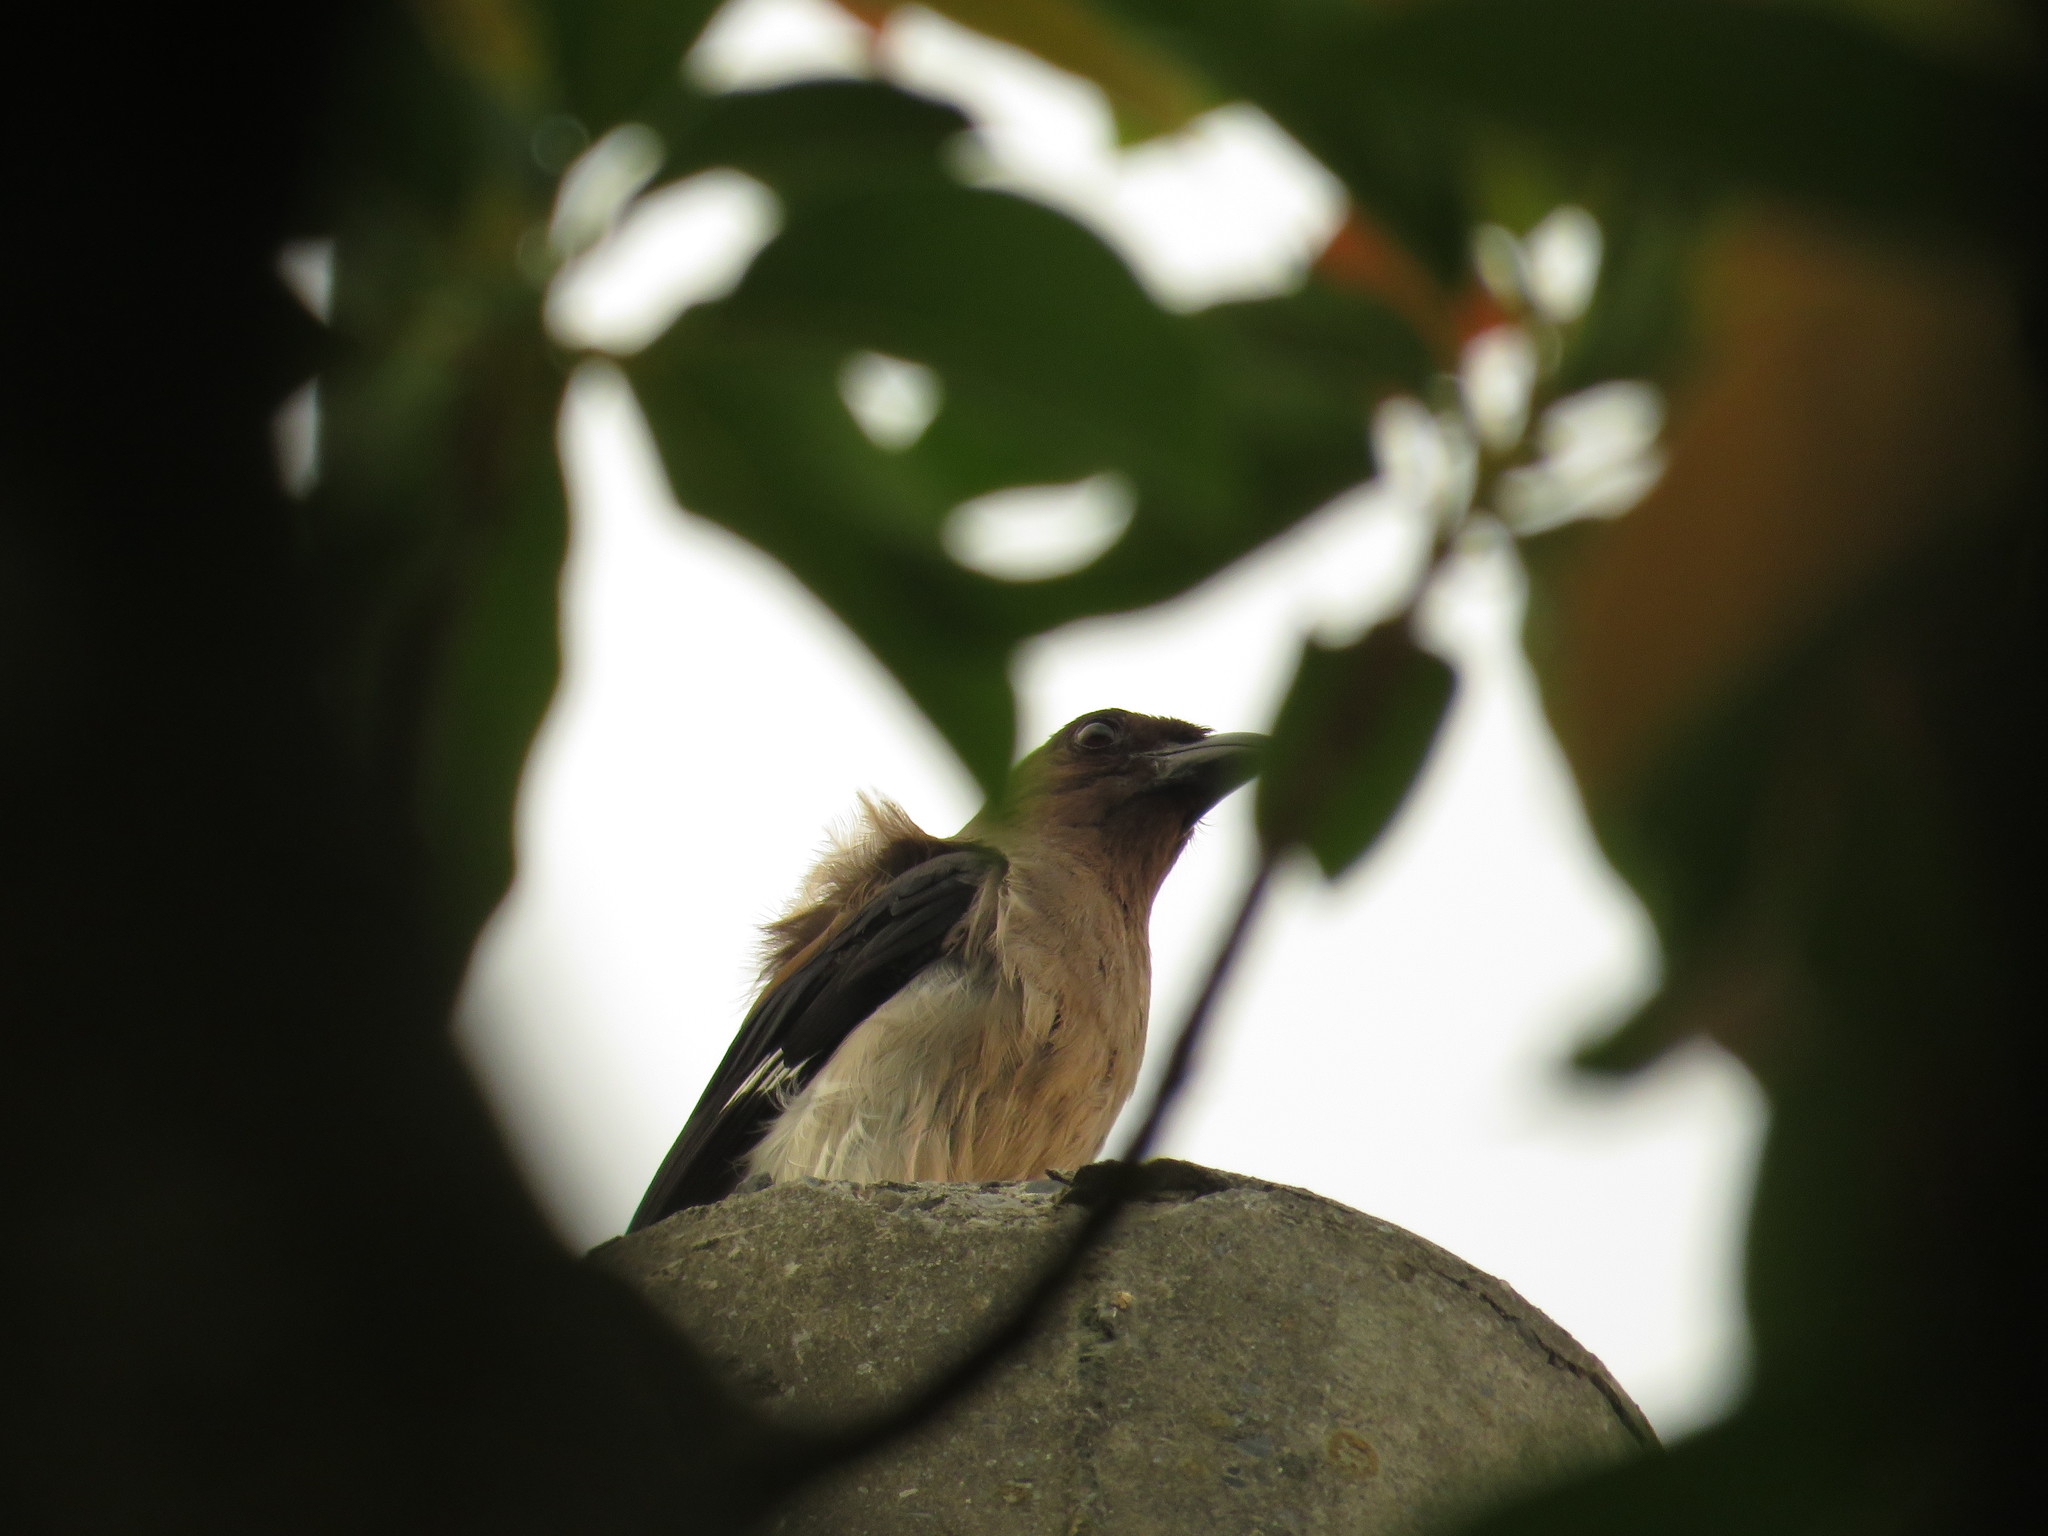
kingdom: Animalia
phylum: Chordata
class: Aves
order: Passeriformes
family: Corvidae
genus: Dendrocitta
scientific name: Dendrocitta formosae
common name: Grey treepie
